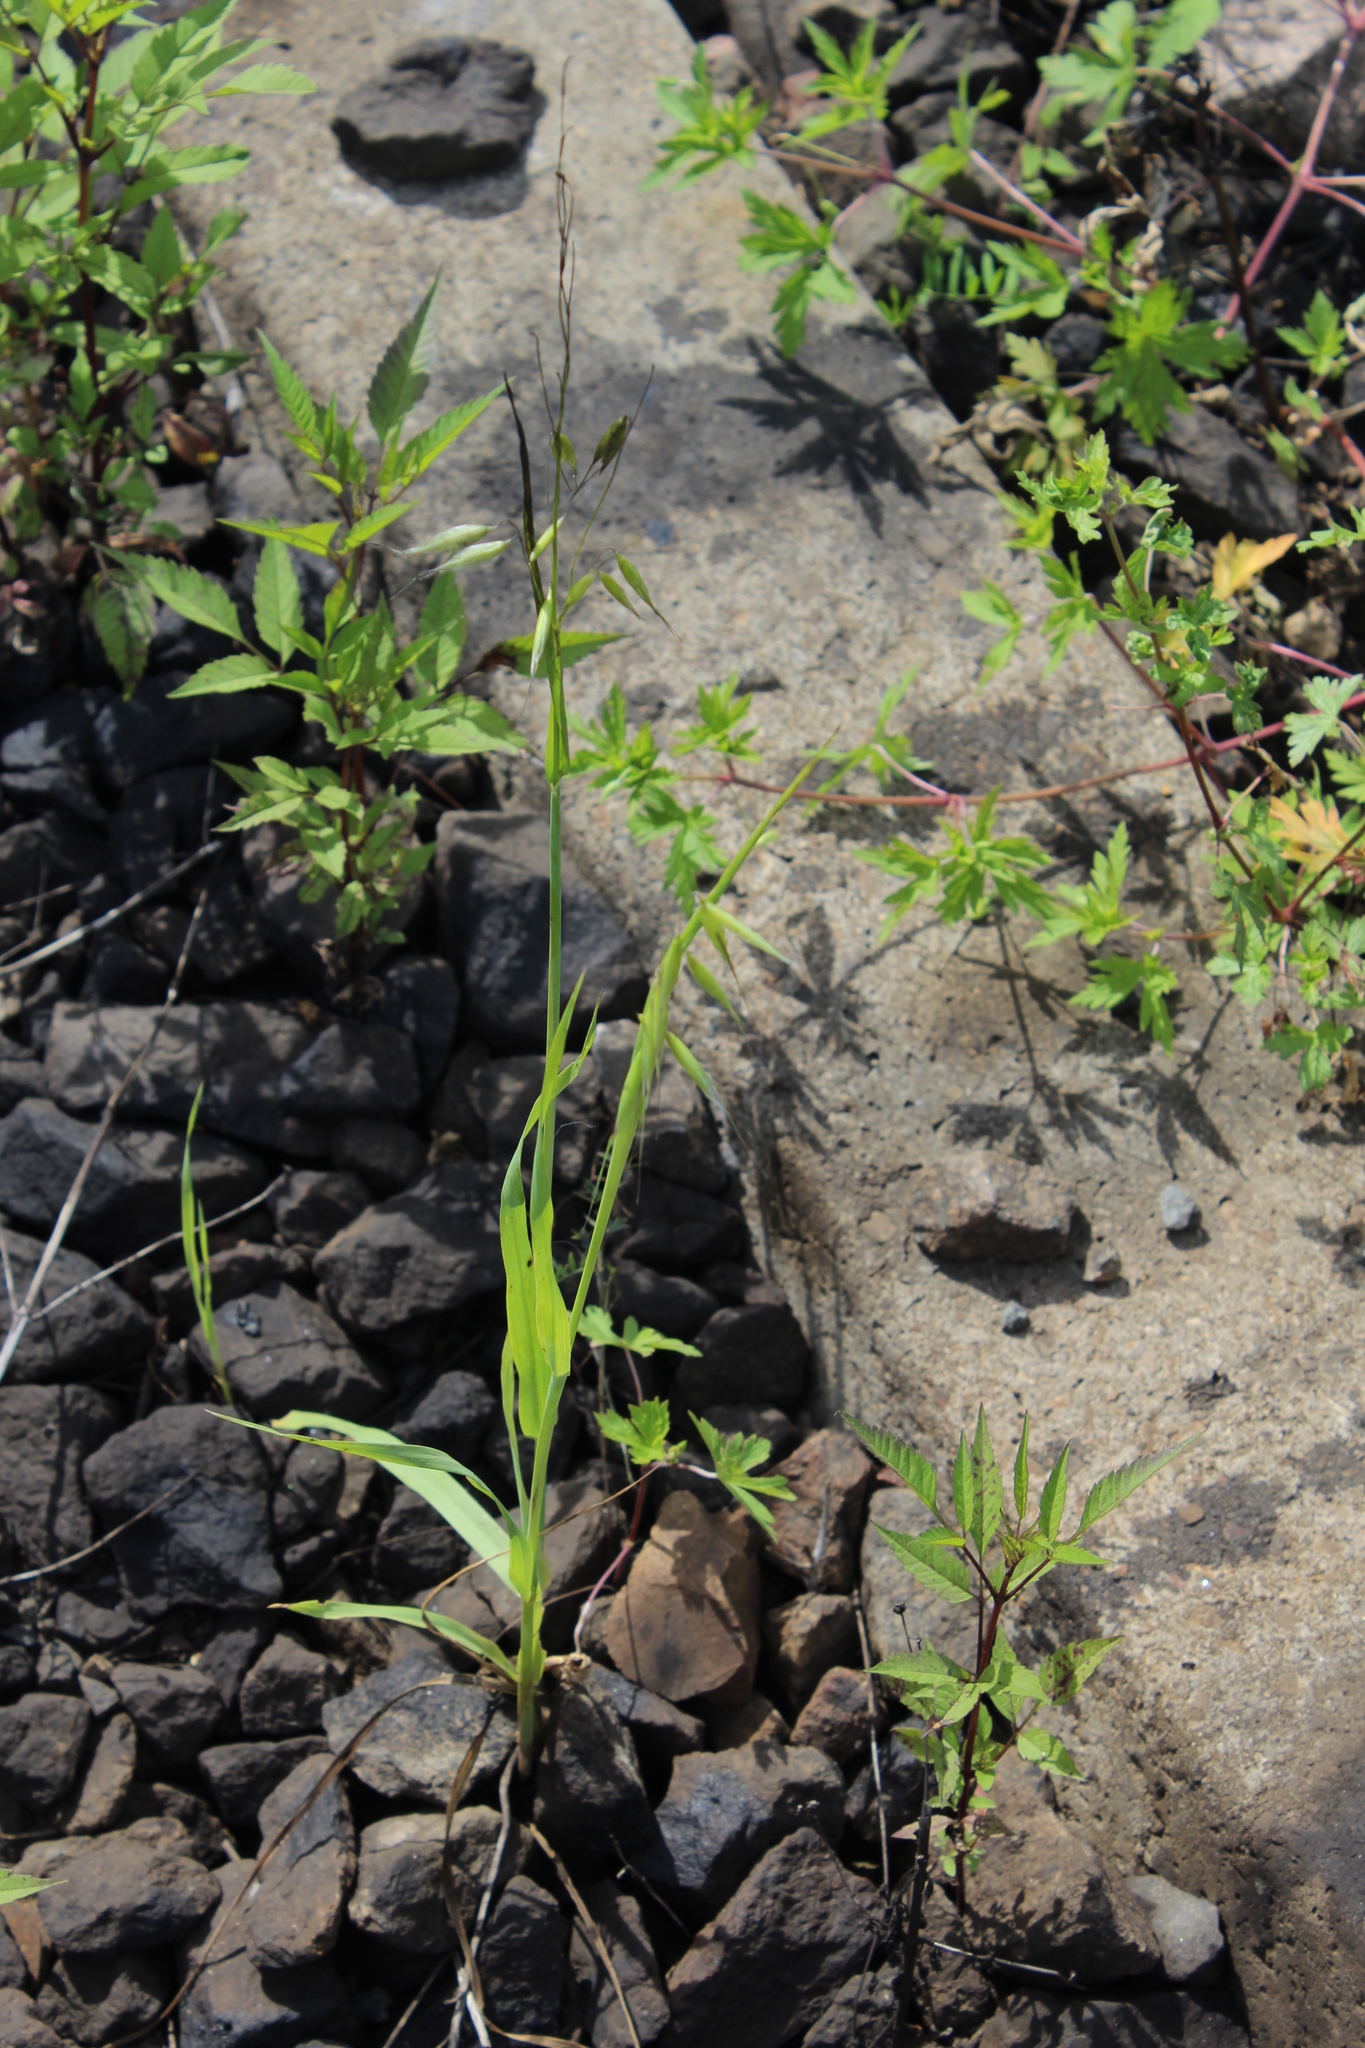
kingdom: Plantae
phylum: Tracheophyta
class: Liliopsida
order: Poales
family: Poaceae
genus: Avena
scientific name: Avena fatua
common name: Wild oat
